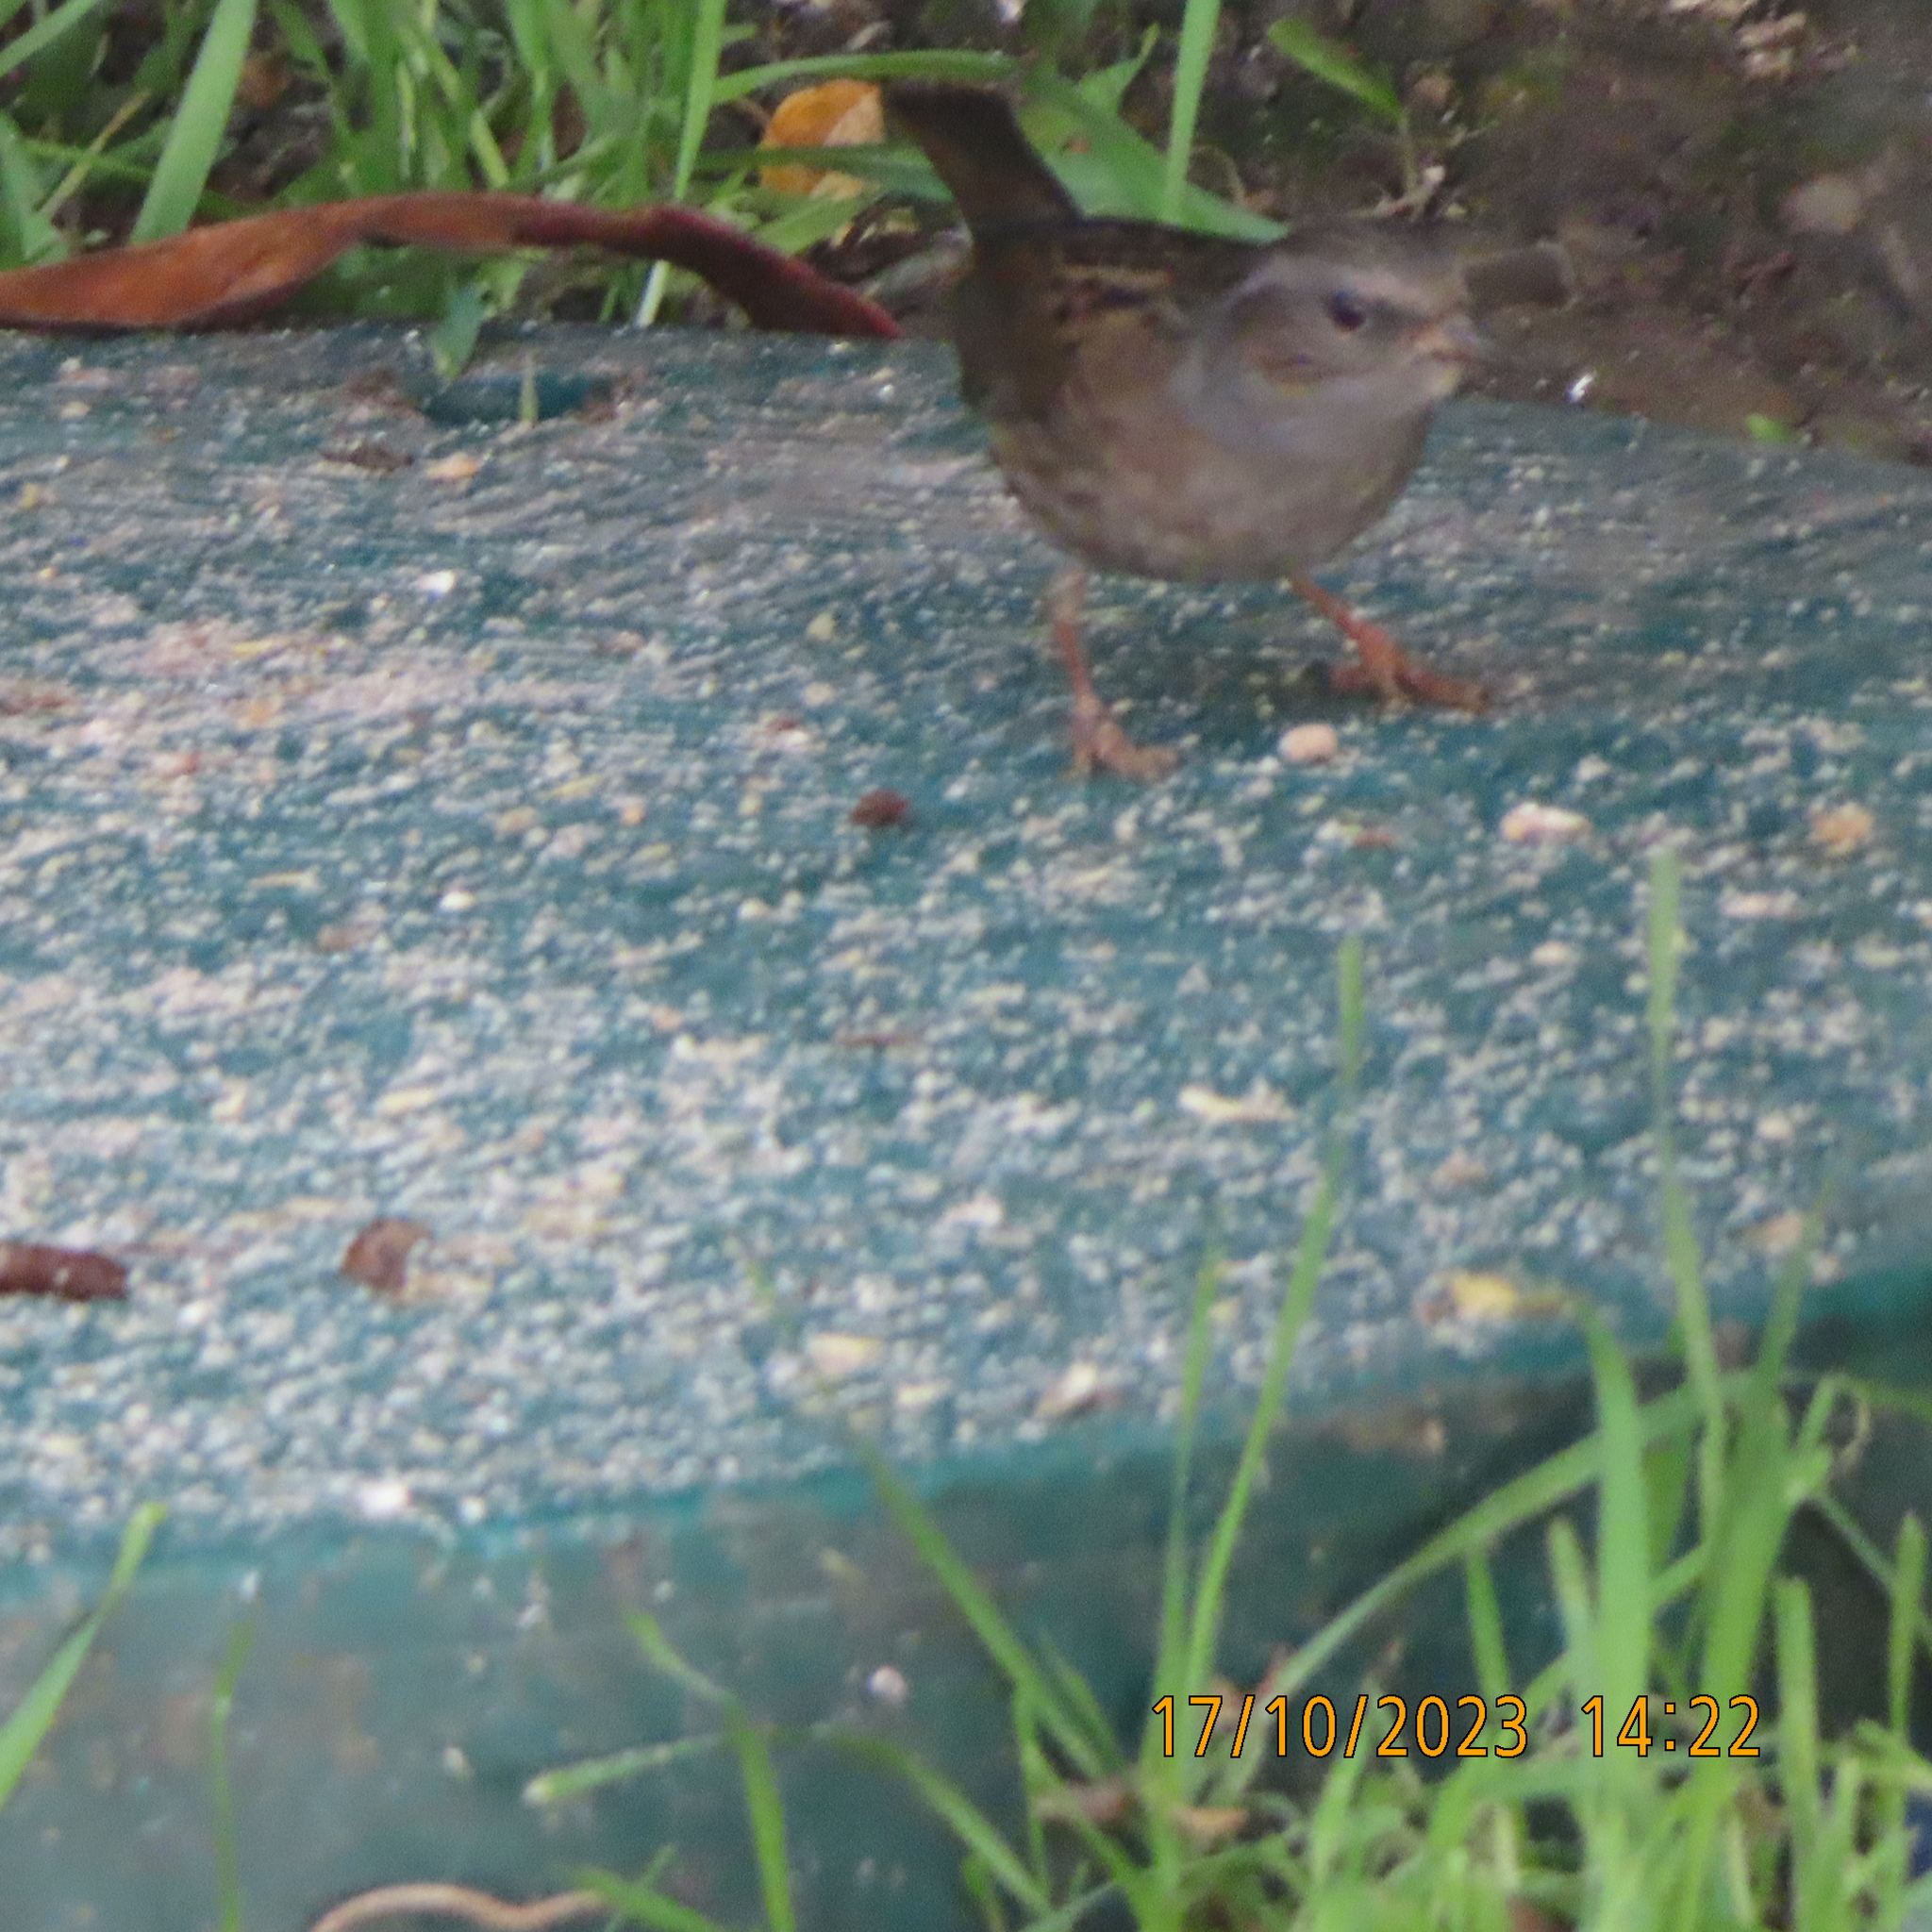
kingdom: Animalia
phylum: Chordata
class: Aves
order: Passeriformes
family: Prunellidae
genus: Prunella
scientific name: Prunella modularis
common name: Dunnock
